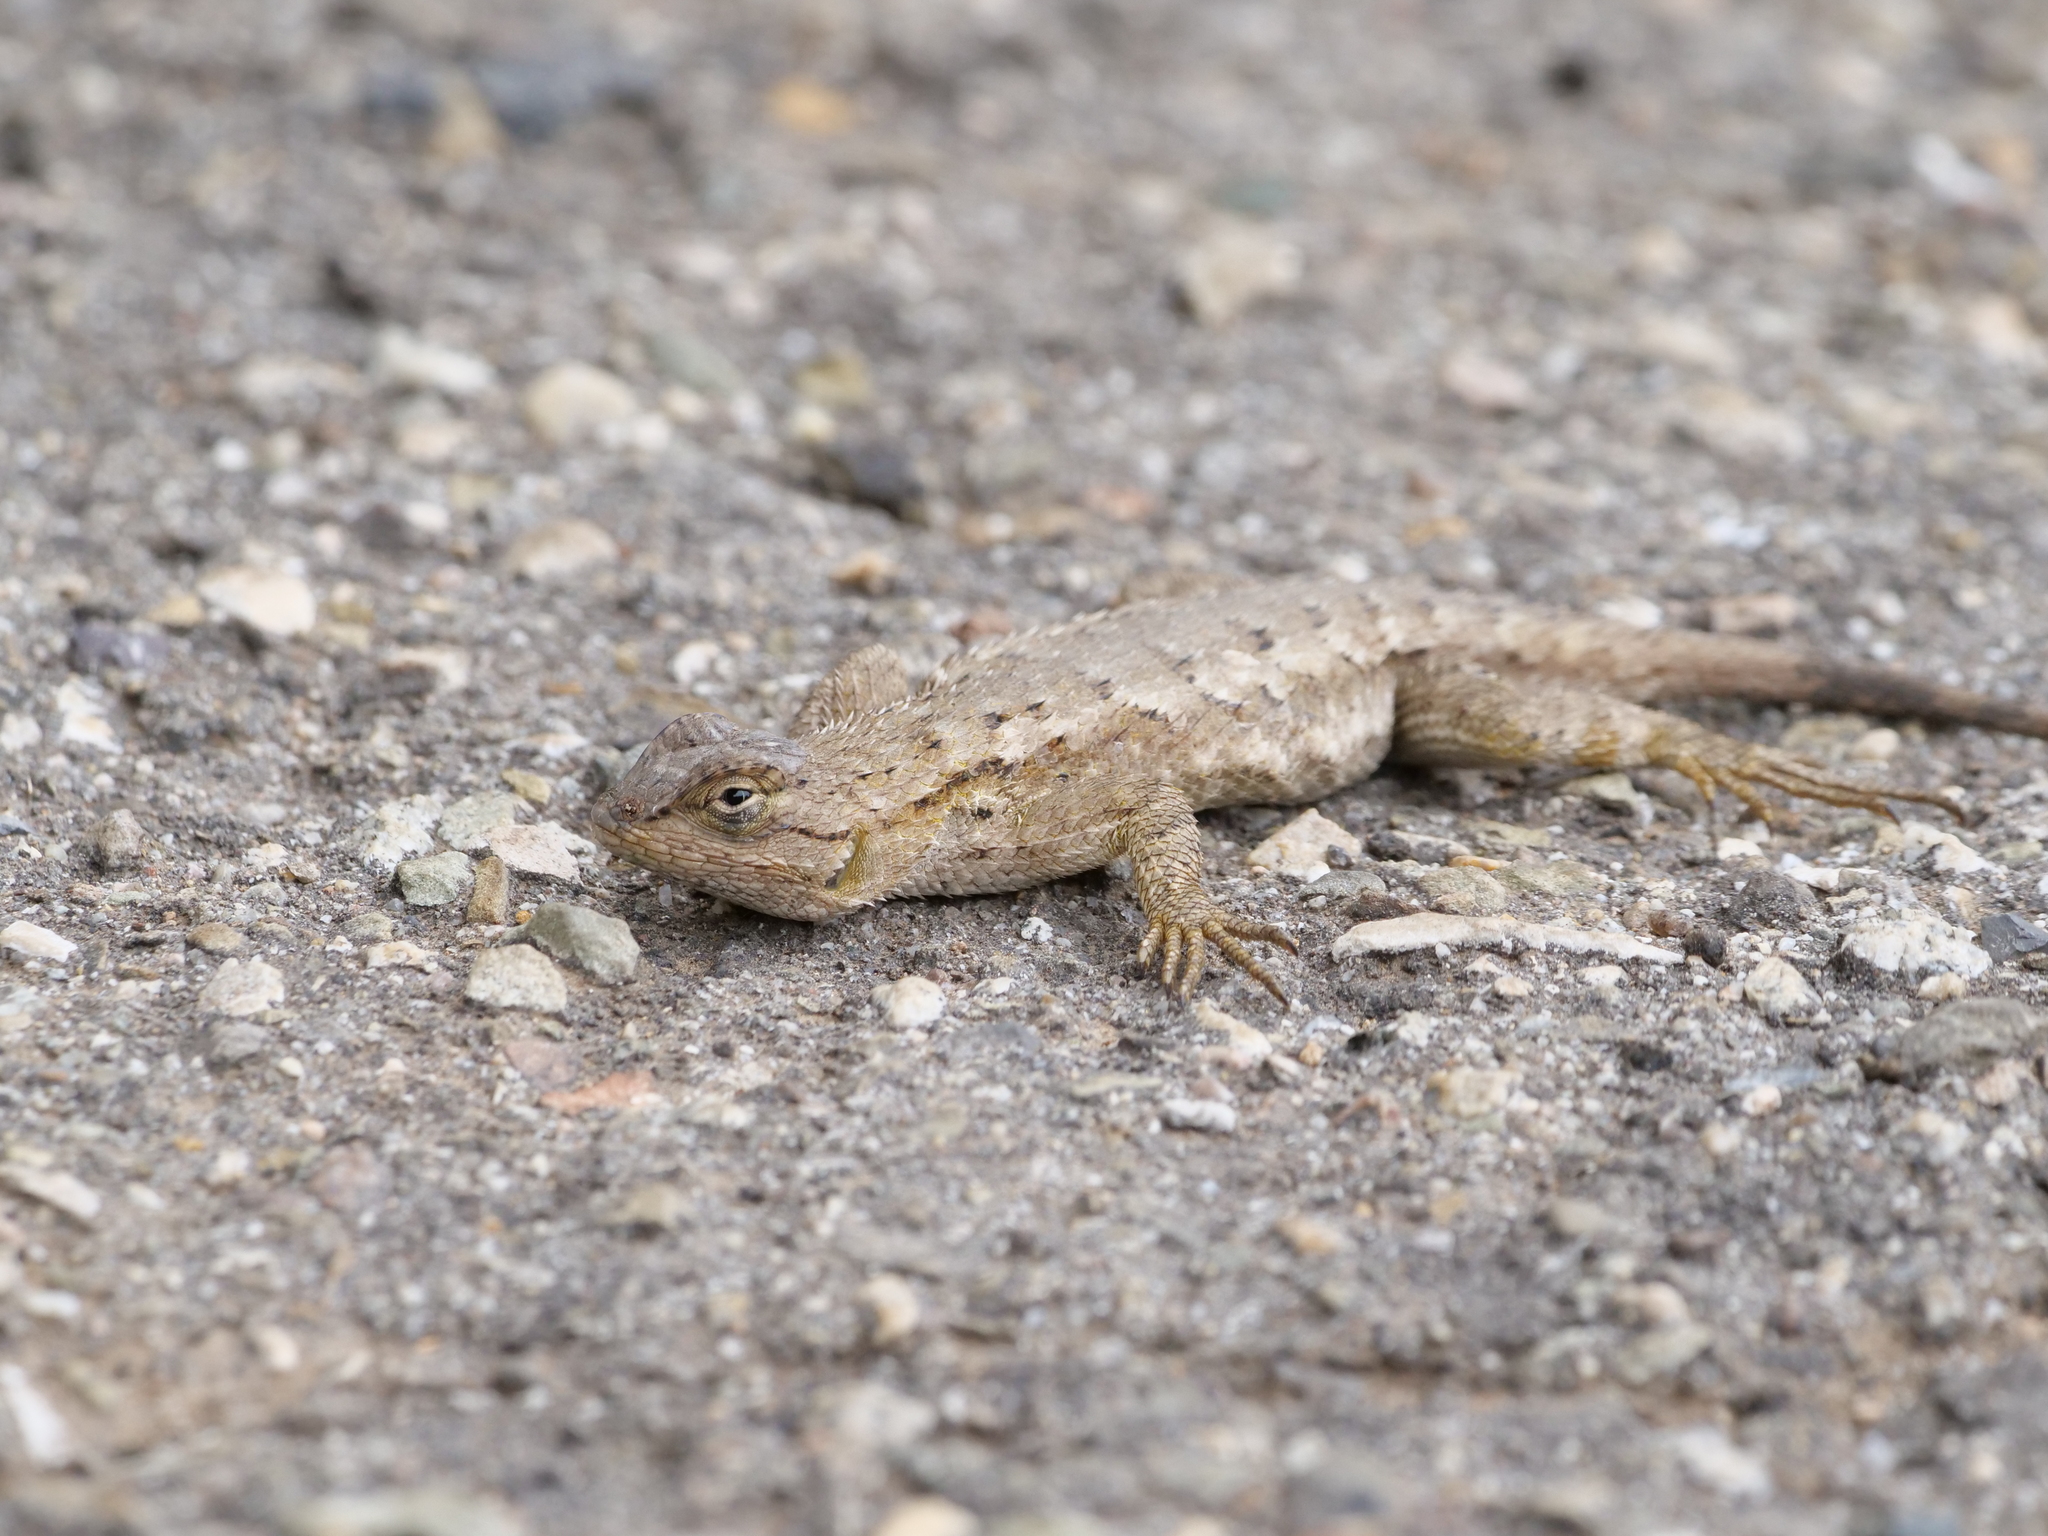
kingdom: Animalia
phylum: Chordata
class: Squamata
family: Phrynosomatidae
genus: Sceloporus
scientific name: Sceloporus occidentalis
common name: Western fence lizard
